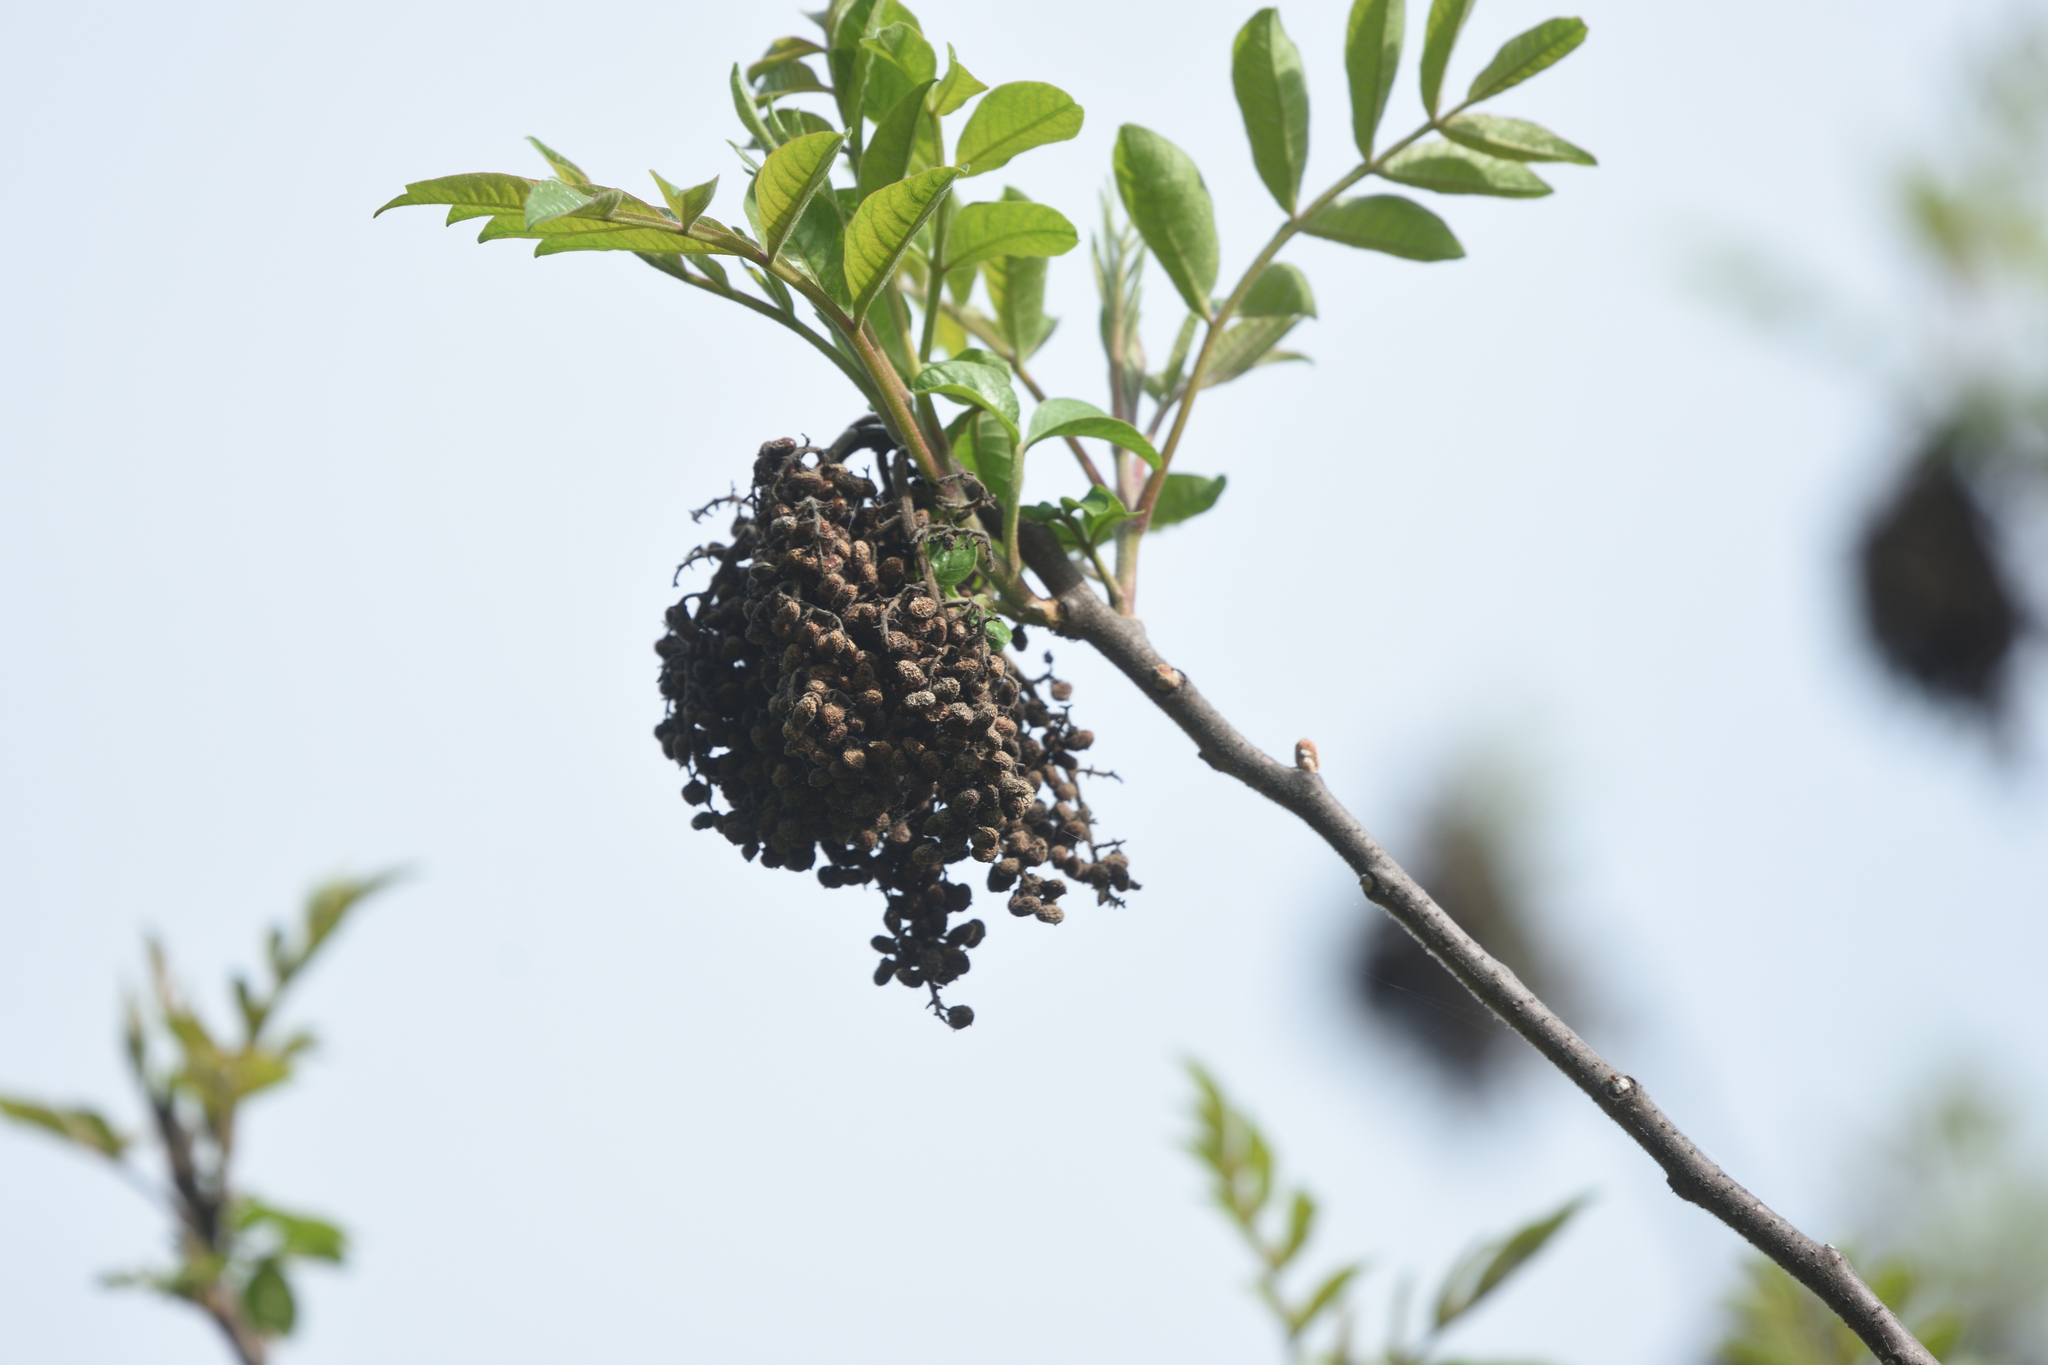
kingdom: Plantae
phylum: Tracheophyta
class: Magnoliopsida
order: Sapindales
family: Anacardiaceae
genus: Rhus
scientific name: Rhus glabra
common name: Scarlet sumac
